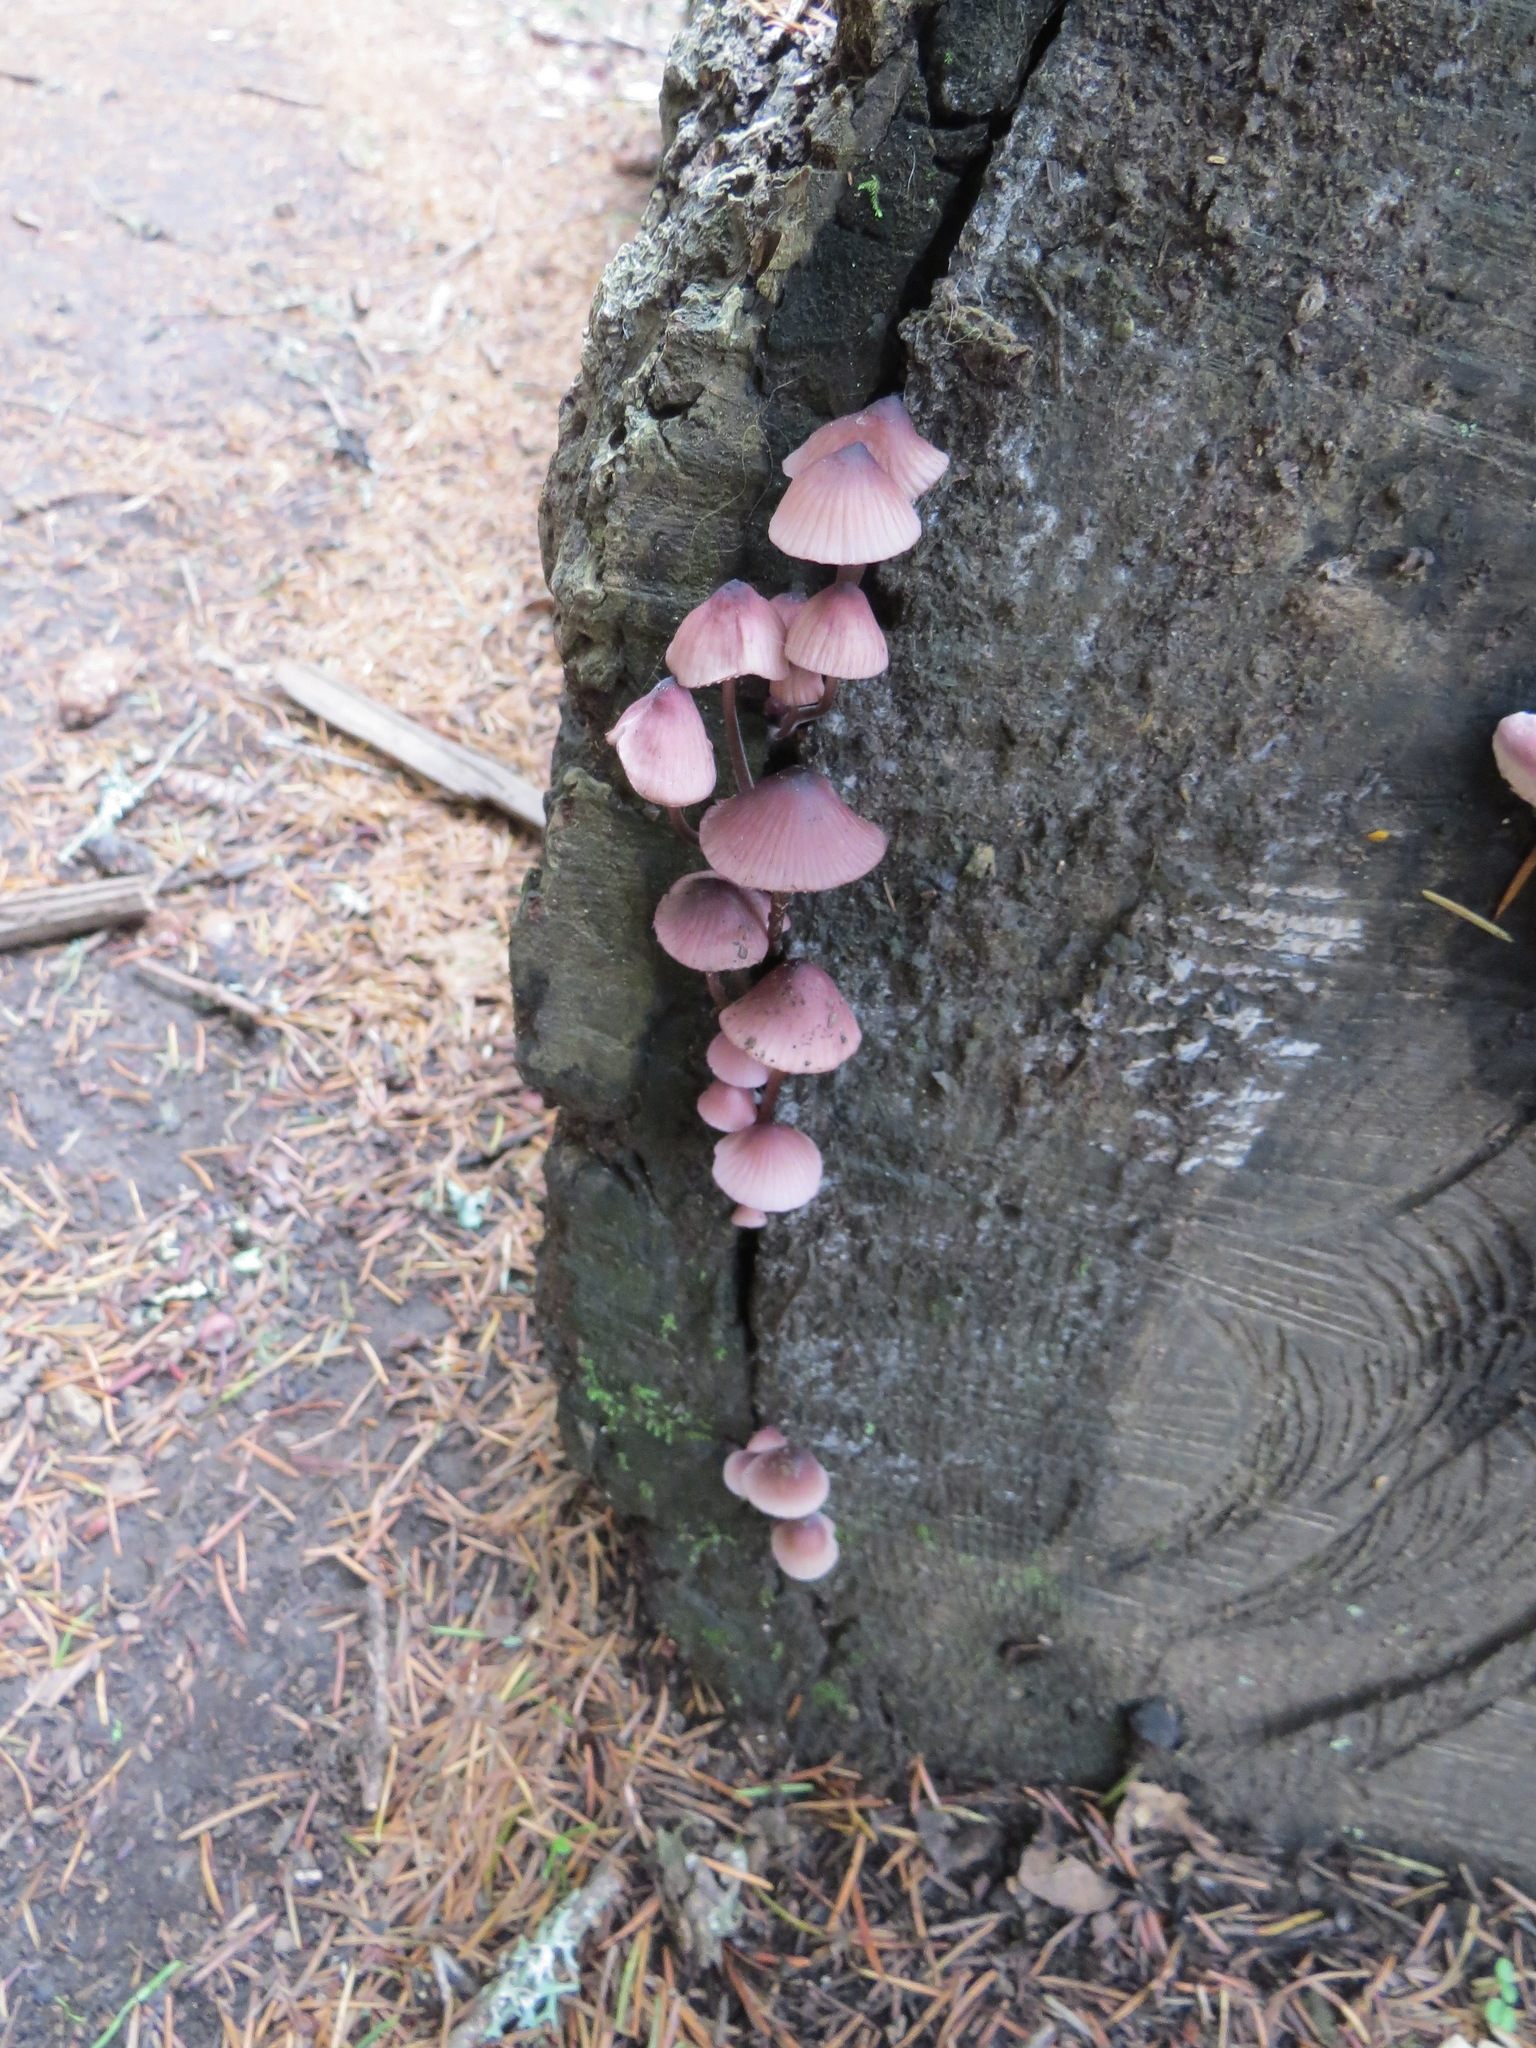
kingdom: Fungi
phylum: Basidiomycota
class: Agaricomycetes
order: Agaricales
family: Mycenaceae
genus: Mycena
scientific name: Mycena haematopus
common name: Burgundydrop bonnet
